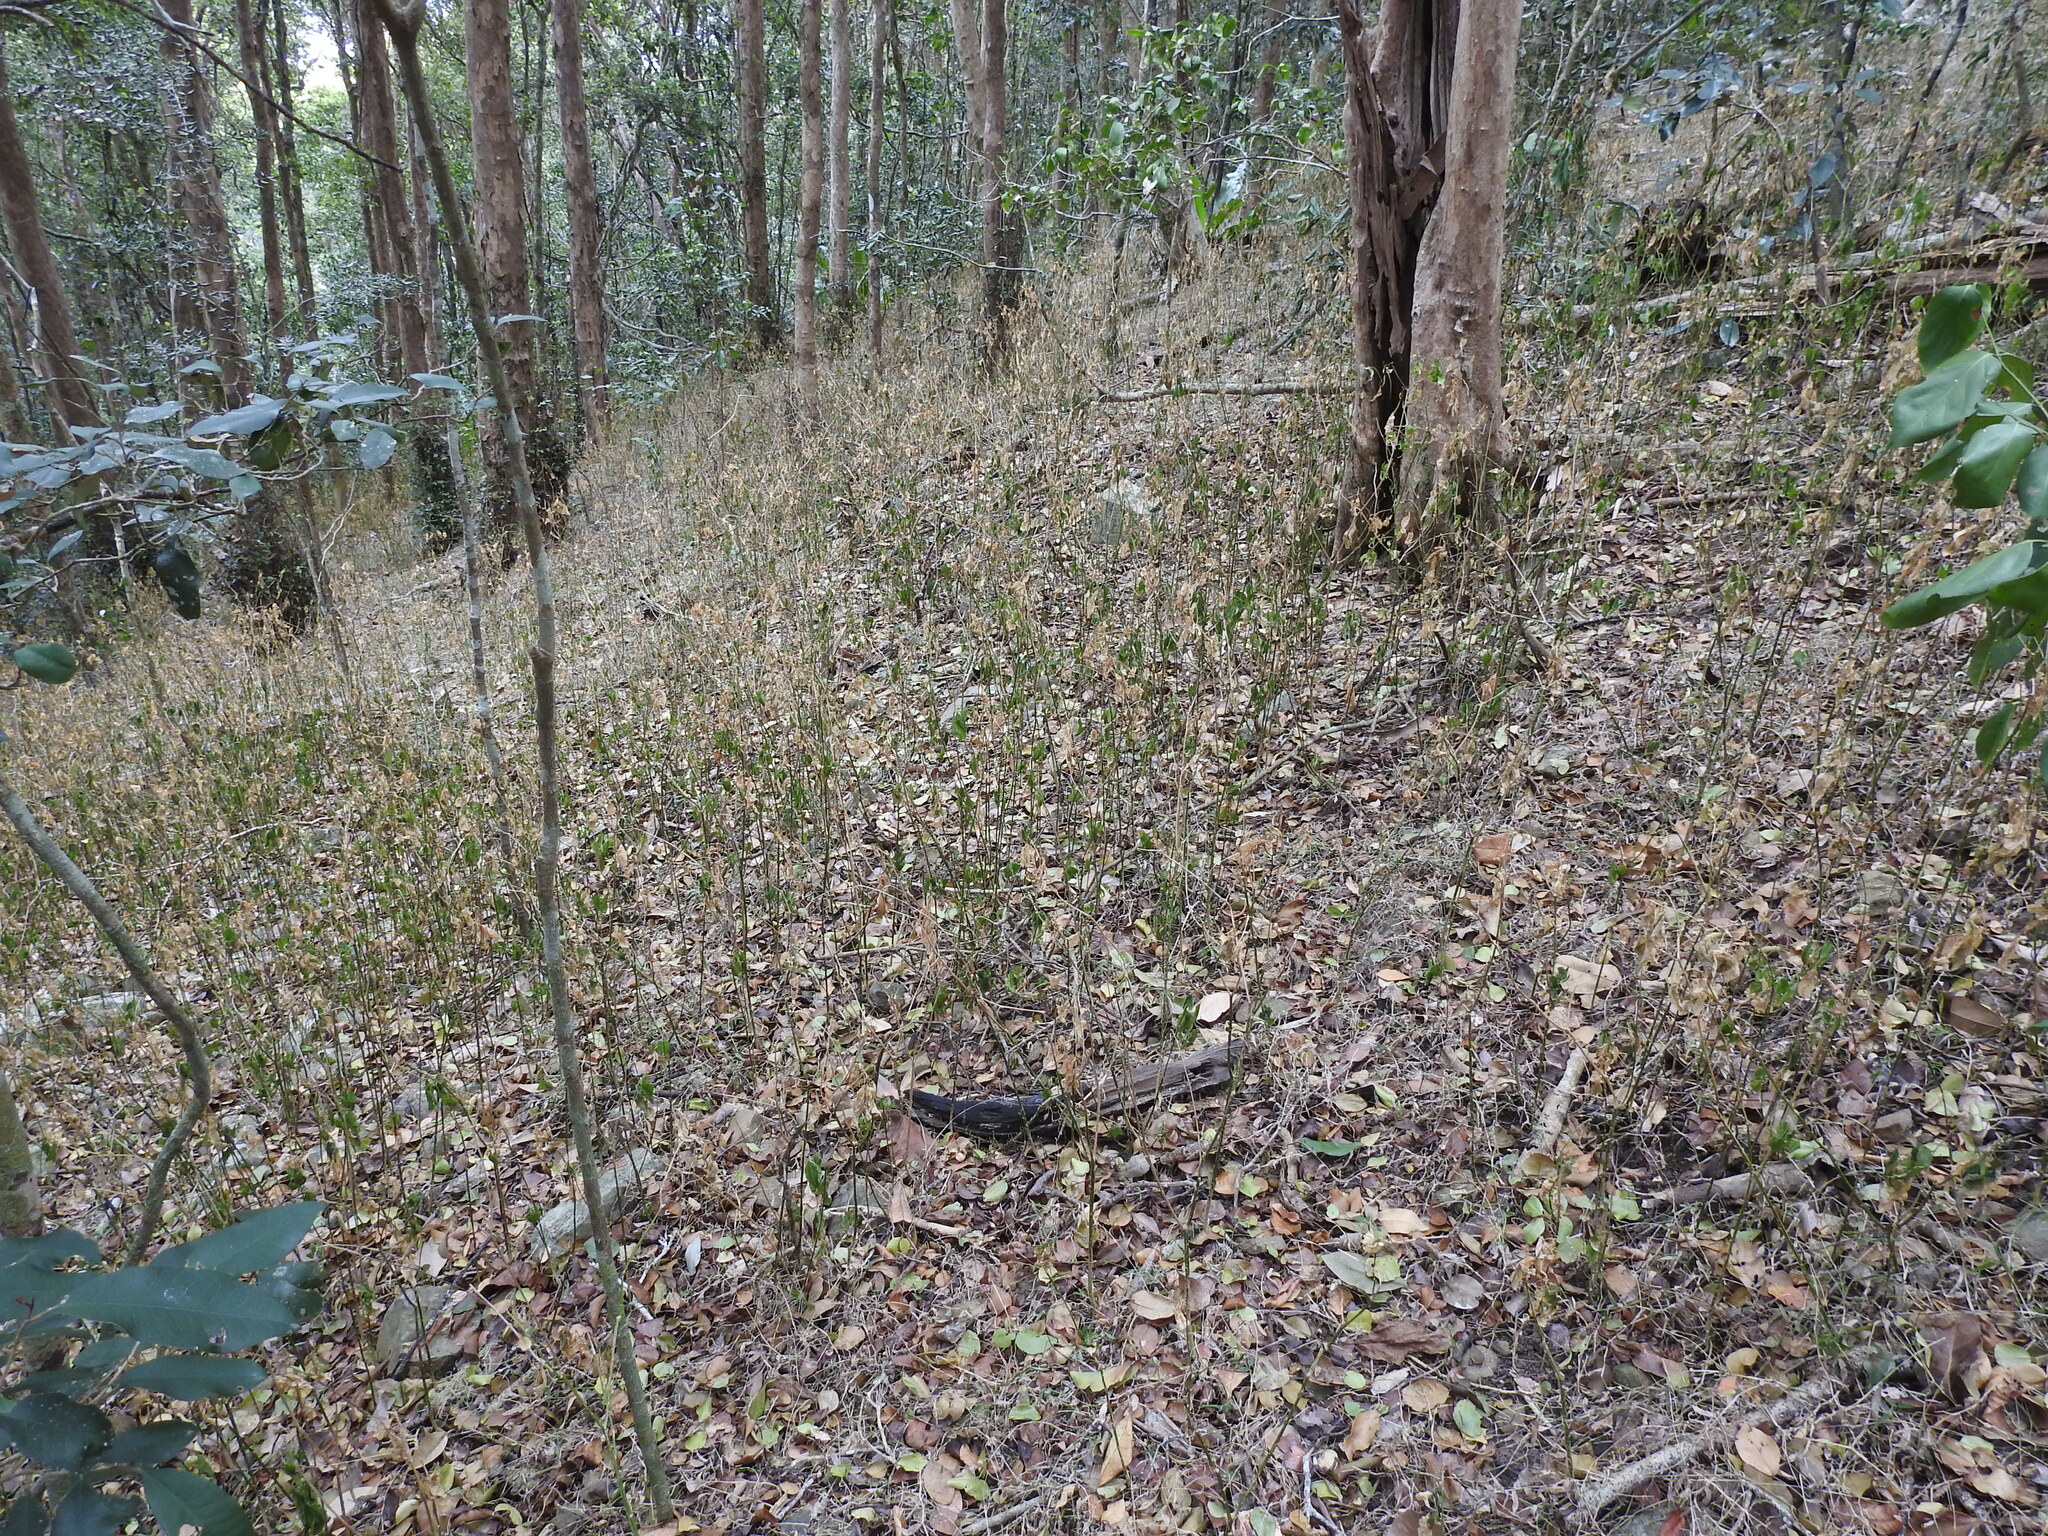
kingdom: Plantae
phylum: Tracheophyta
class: Magnoliopsida
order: Caryophyllales
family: Phytolaccaceae
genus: Rivina
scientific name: Rivina humilis
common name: Rougeplant
